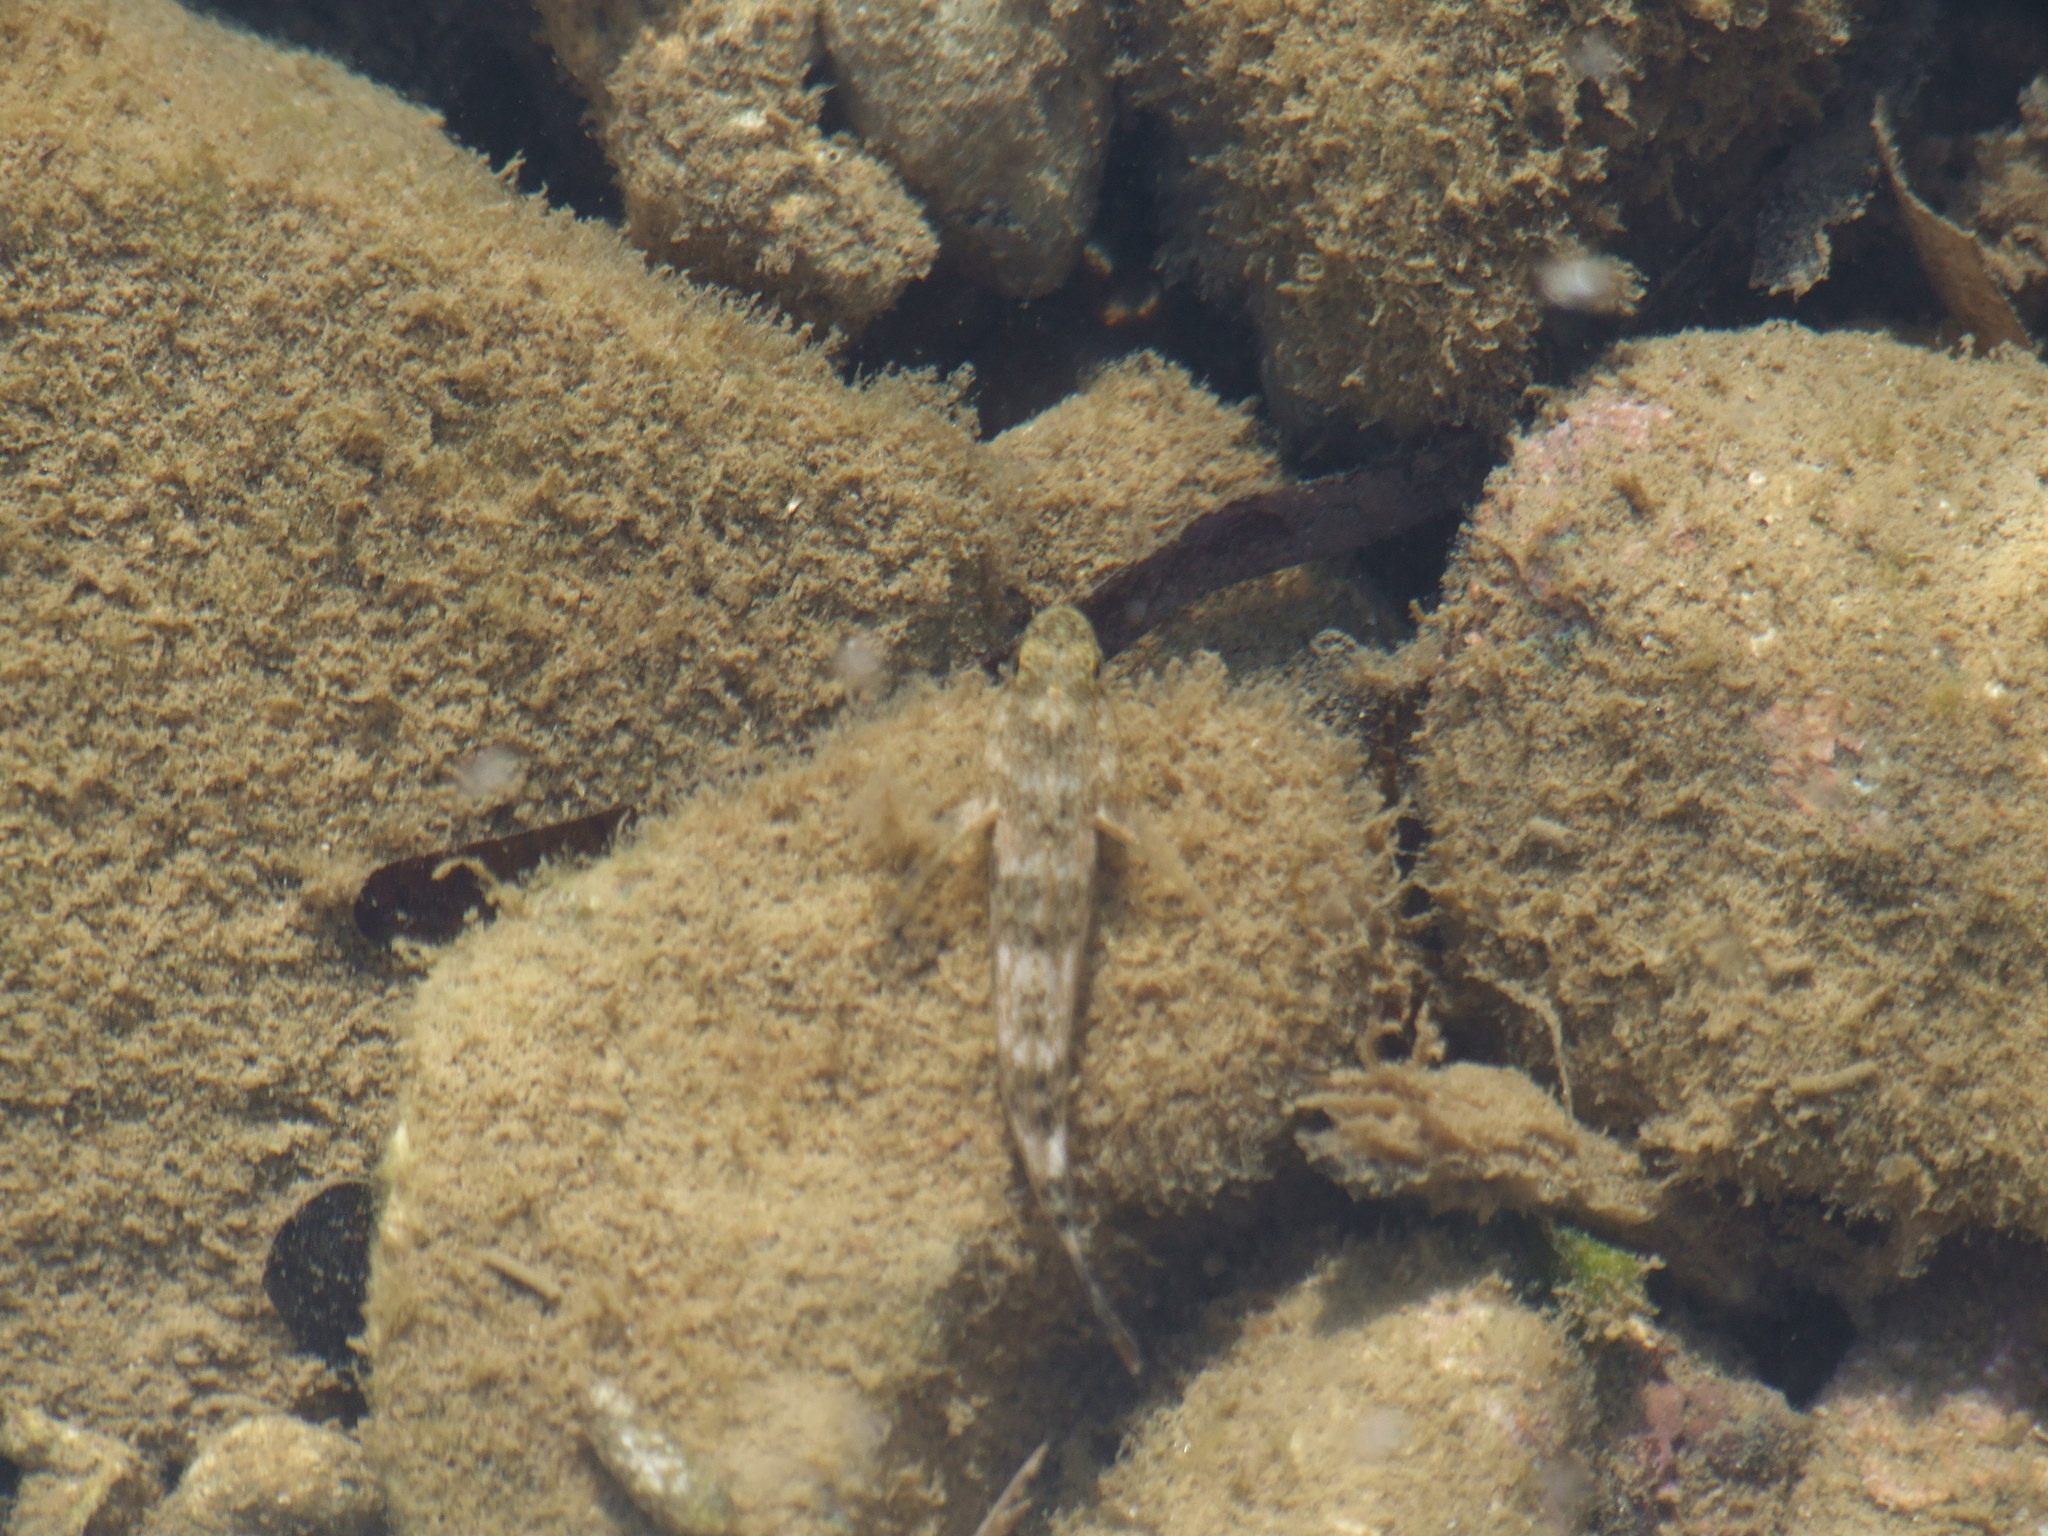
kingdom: Animalia
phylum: Chordata
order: Perciformes
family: Gobiidae
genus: Gobius
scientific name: Gobius cobitis
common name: Giant goby
